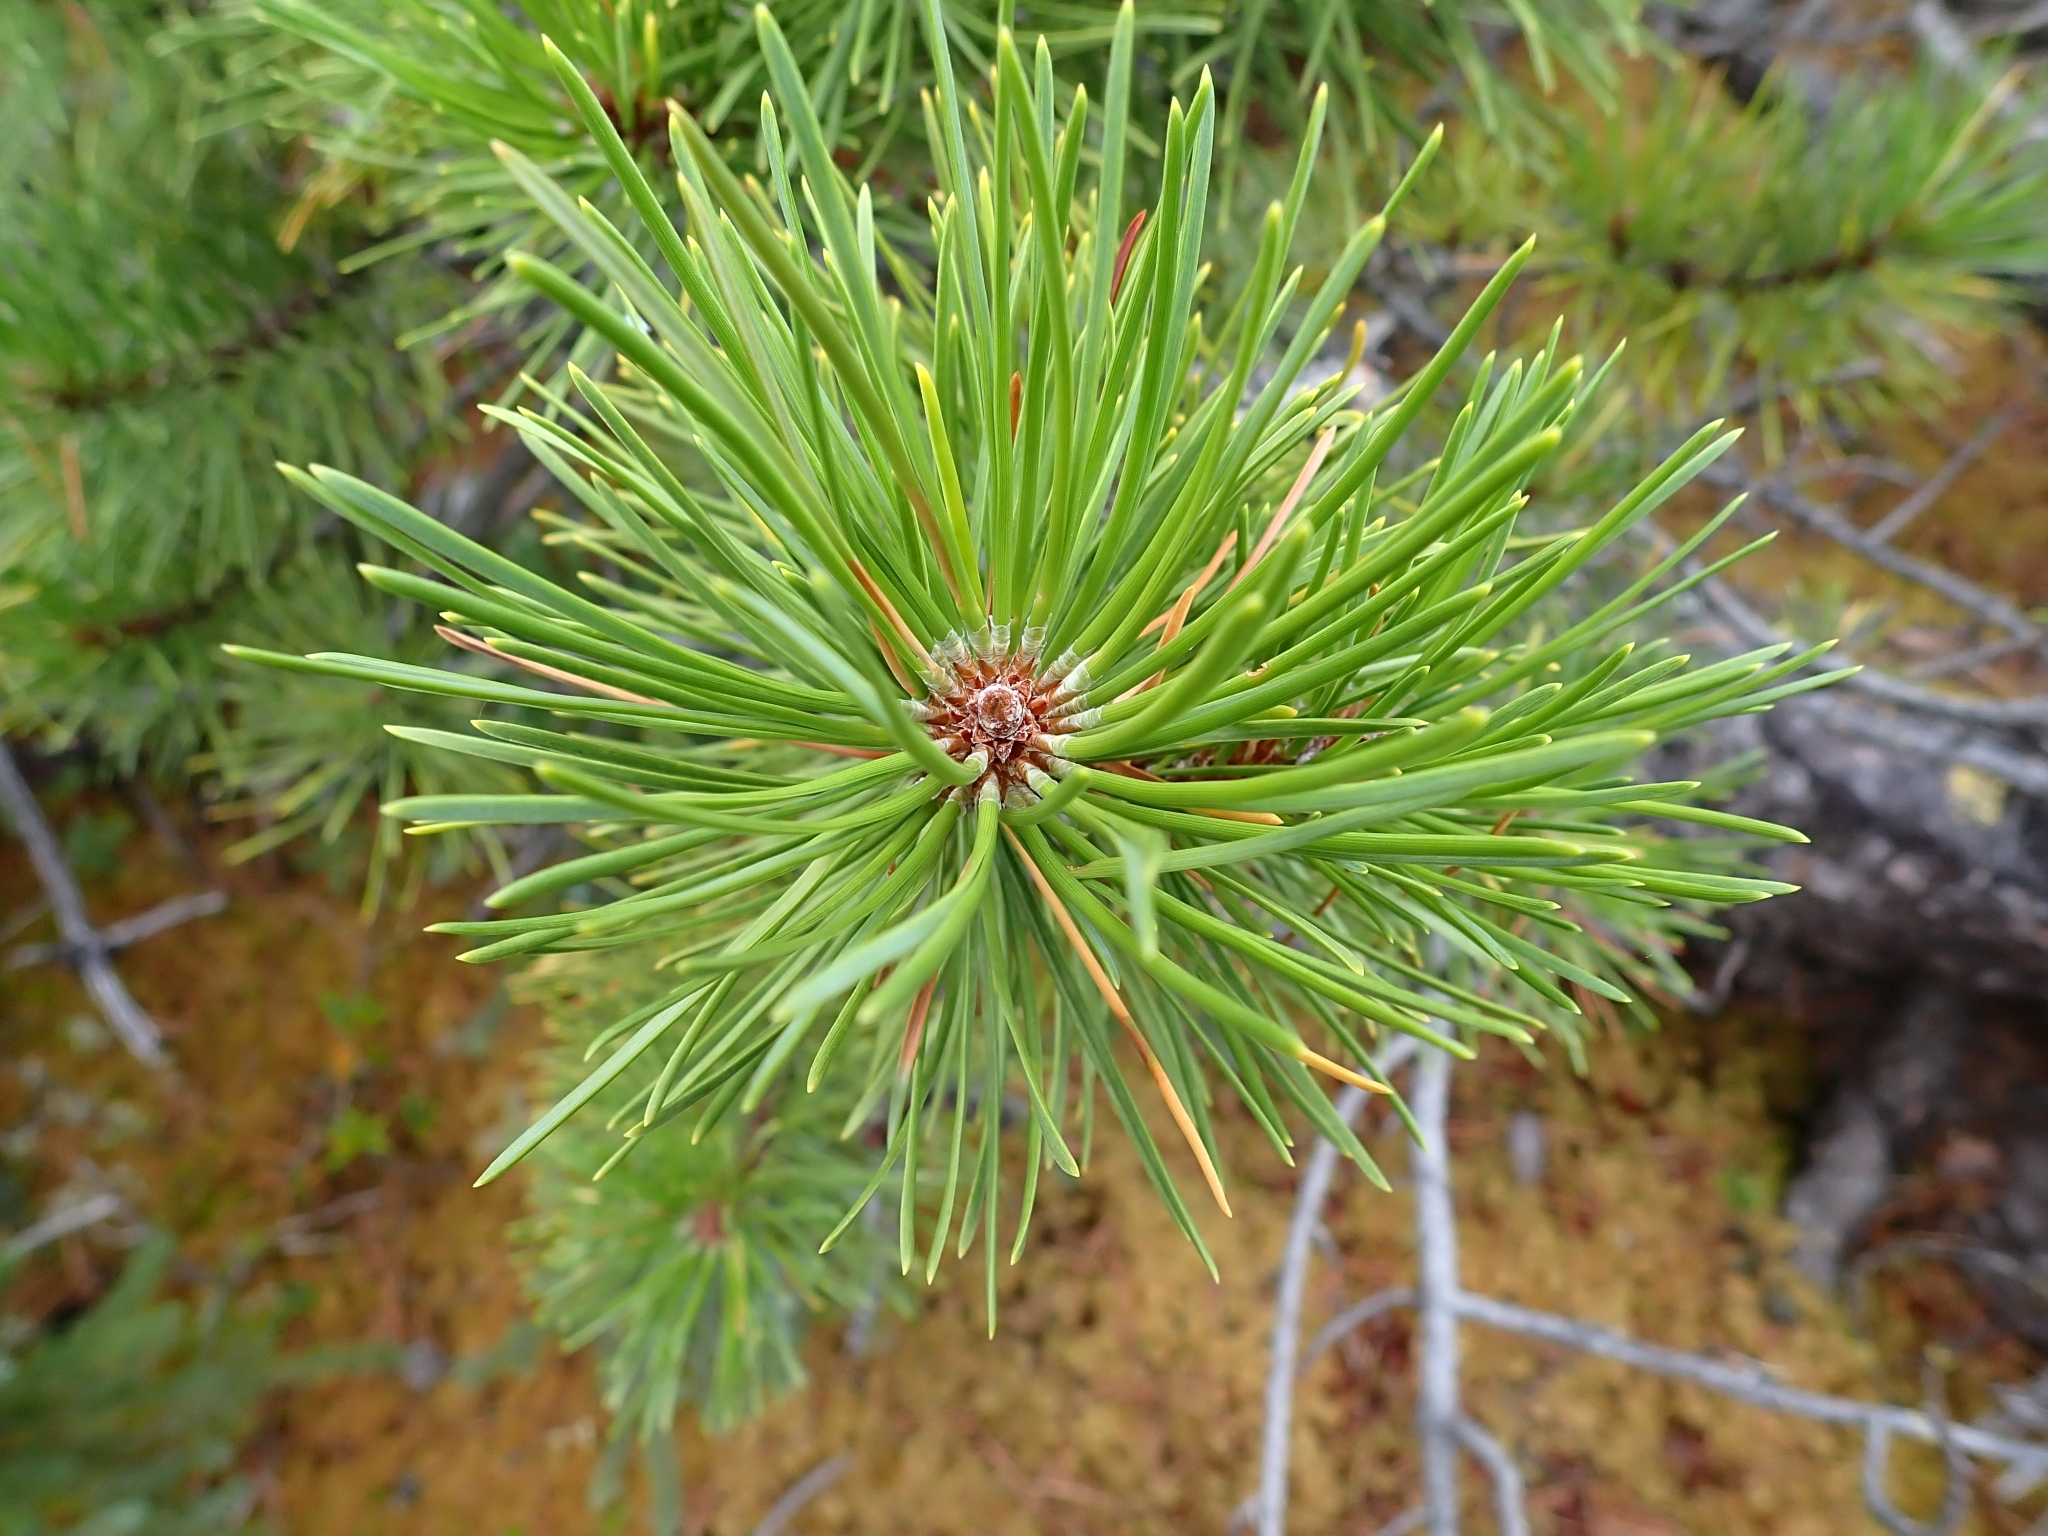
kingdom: Plantae
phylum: Tracheophyta
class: Pinopsida
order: Pinales
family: Pinaceae
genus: Pinus
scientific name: Pinus contorta
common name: Lodgepole pine
